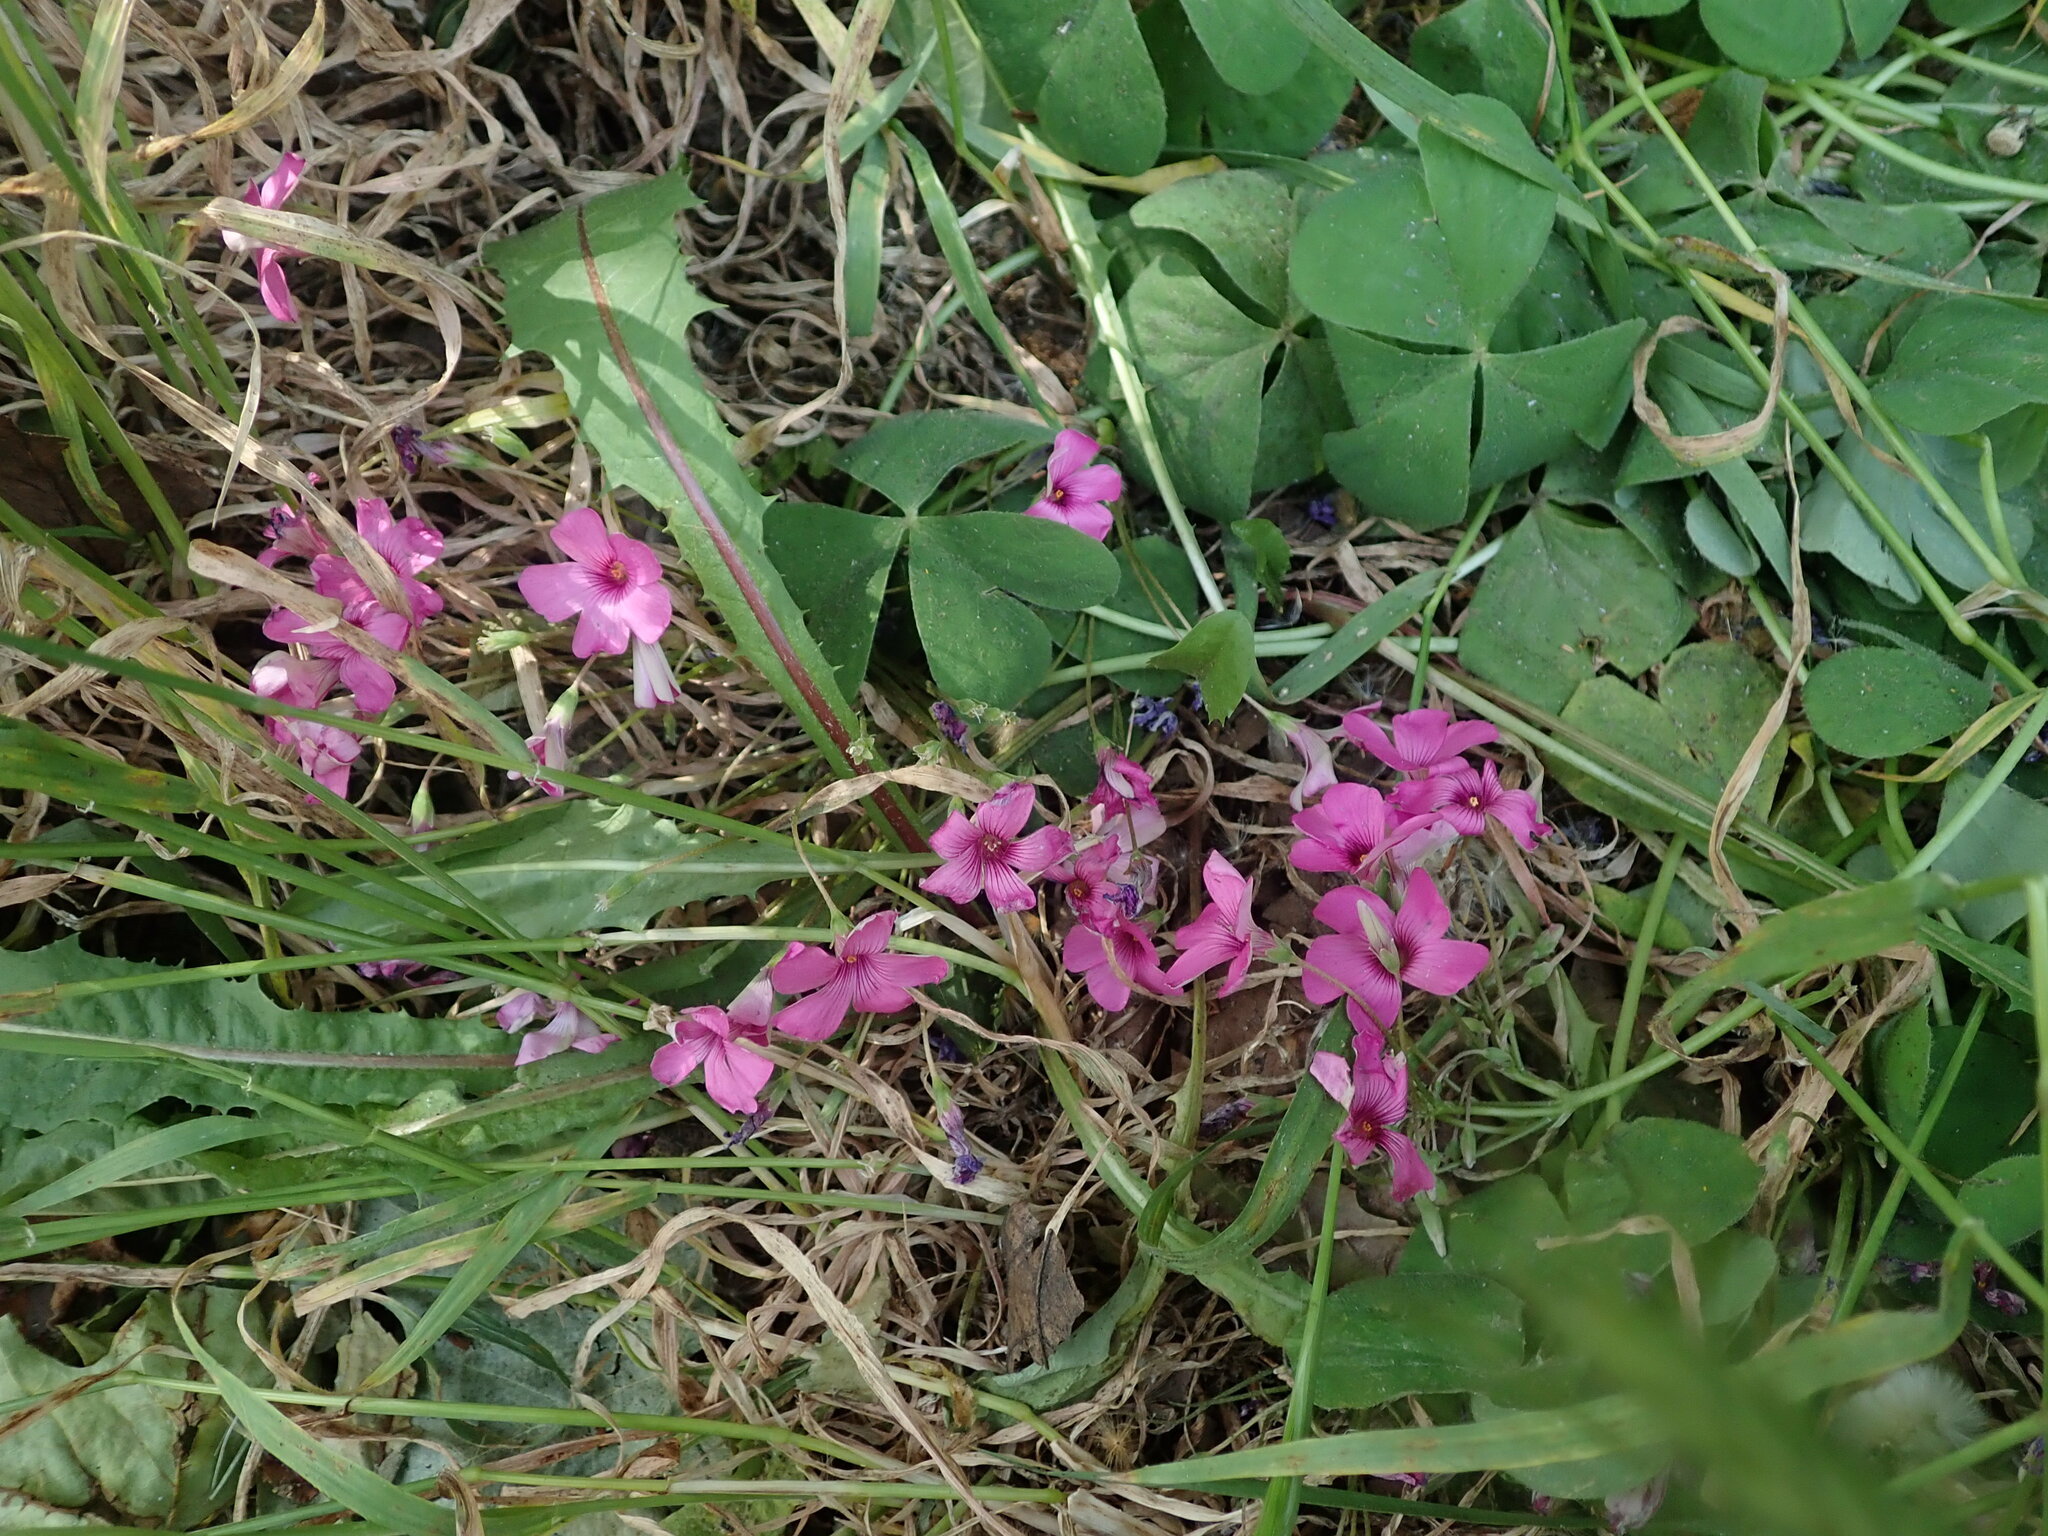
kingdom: Plantae
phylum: Tracheophyta
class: Magnoliopsida
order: Oxalidales
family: Oxalidaceae
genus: Oxalis
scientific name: Oxalis articulata
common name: Pink-sorrel
